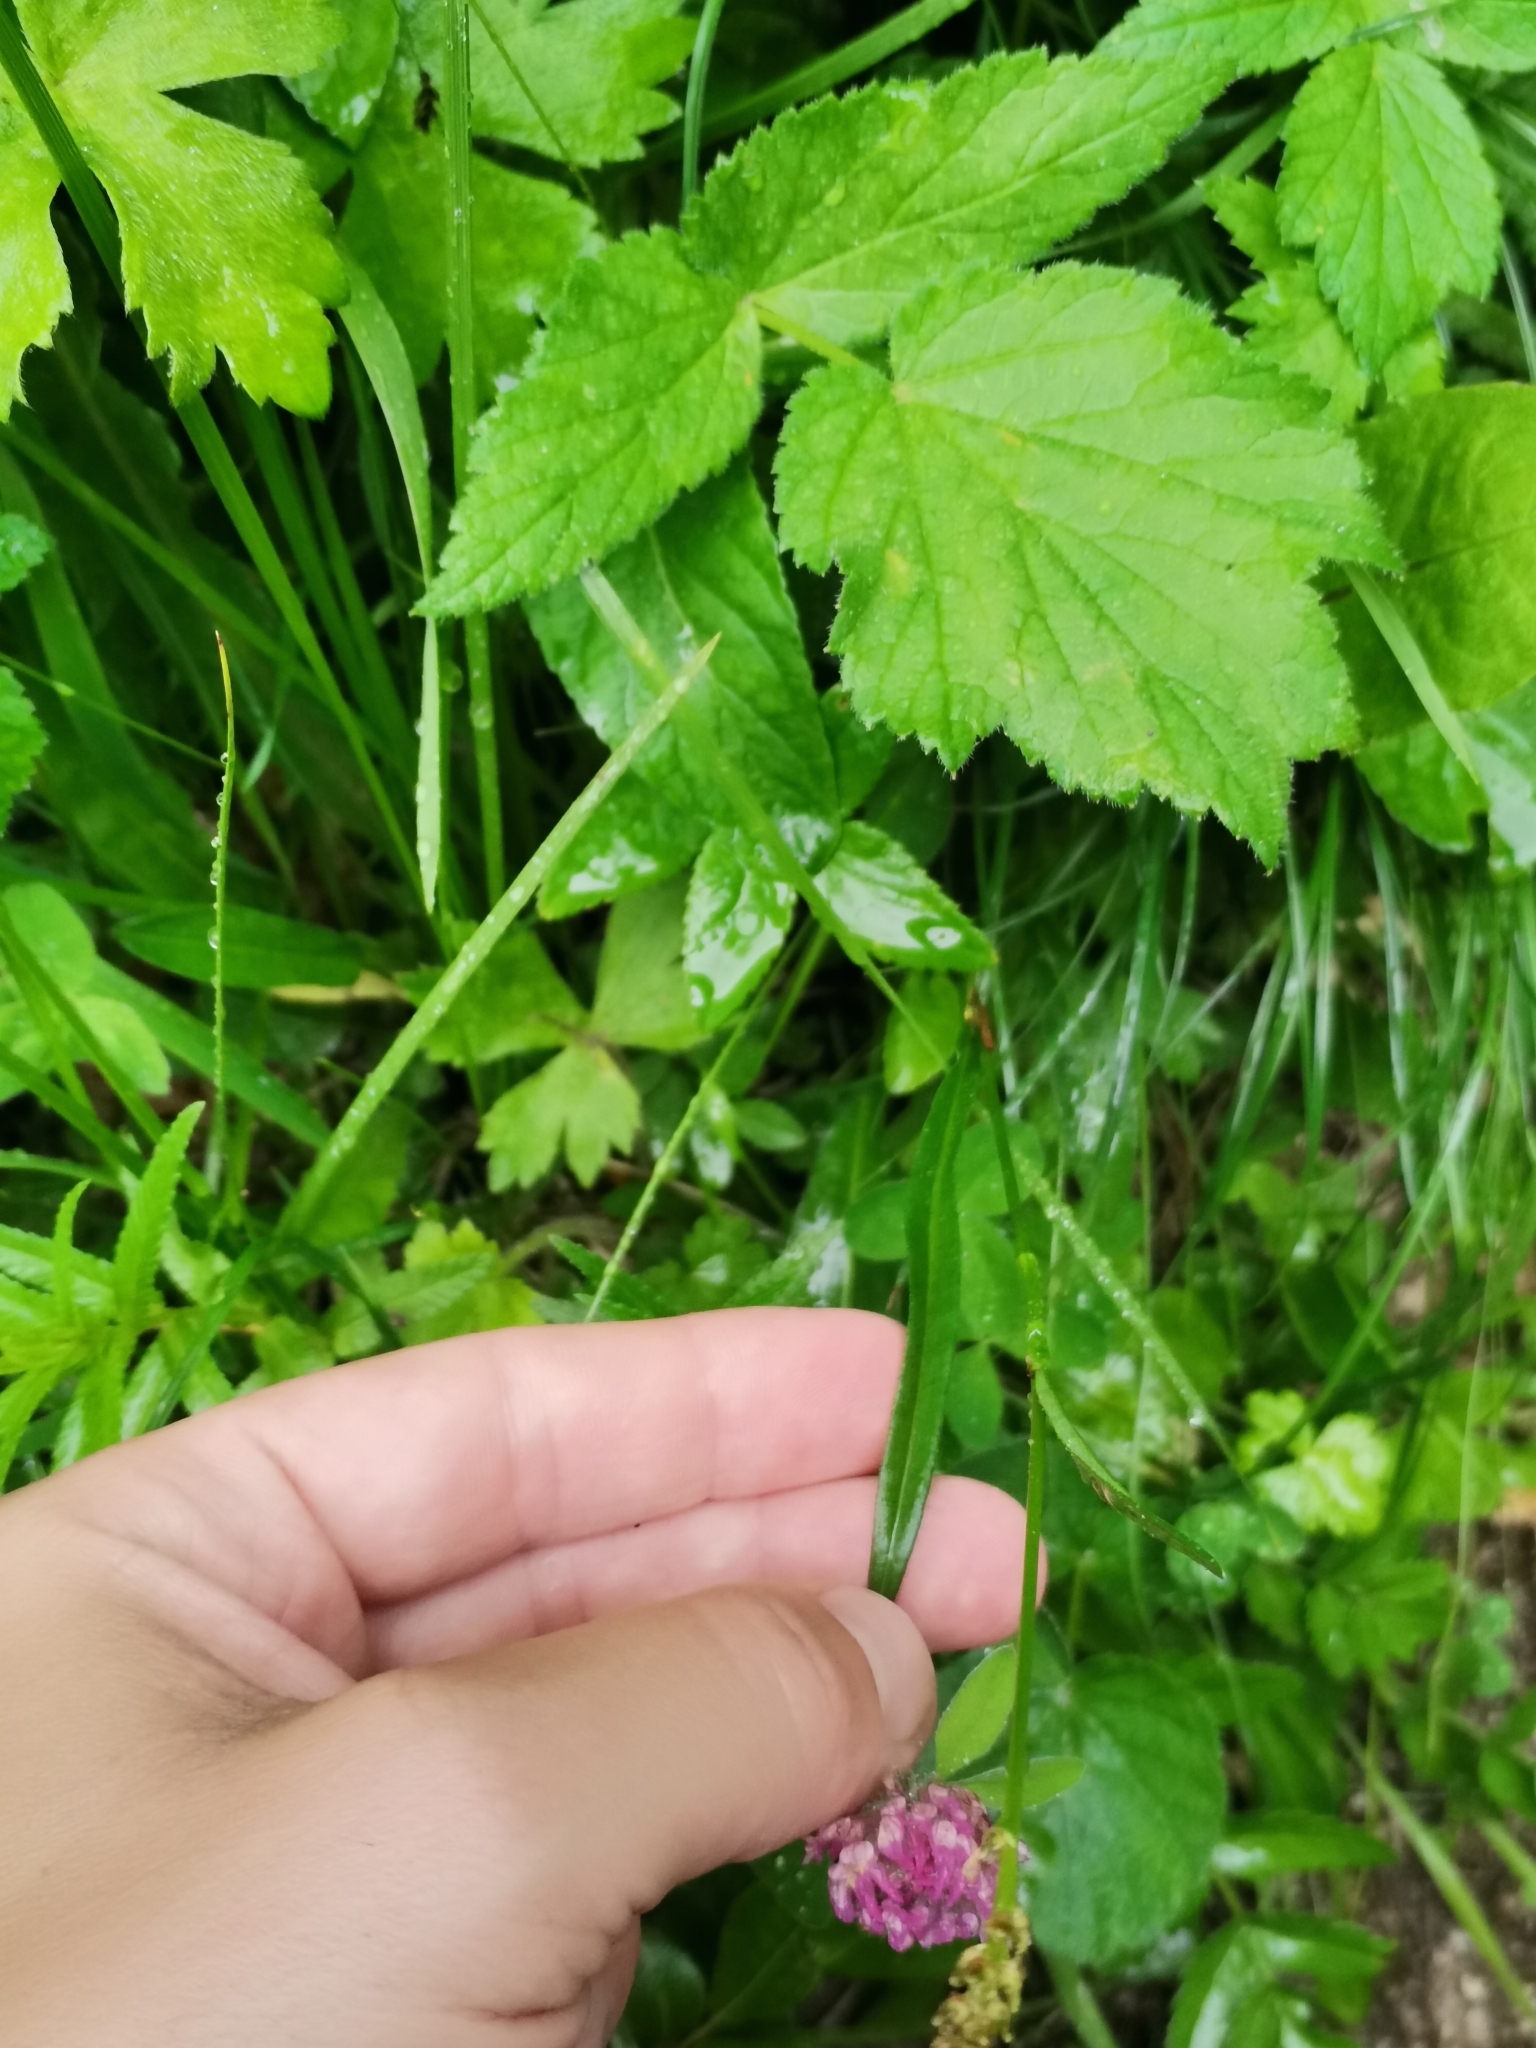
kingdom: Plantae
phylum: Tracheophyta
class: Magnoliopsida
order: Caryophyllales
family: Polygonaceae
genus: Bistorta
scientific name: Bistorta vivipara
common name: Alpine bistort
